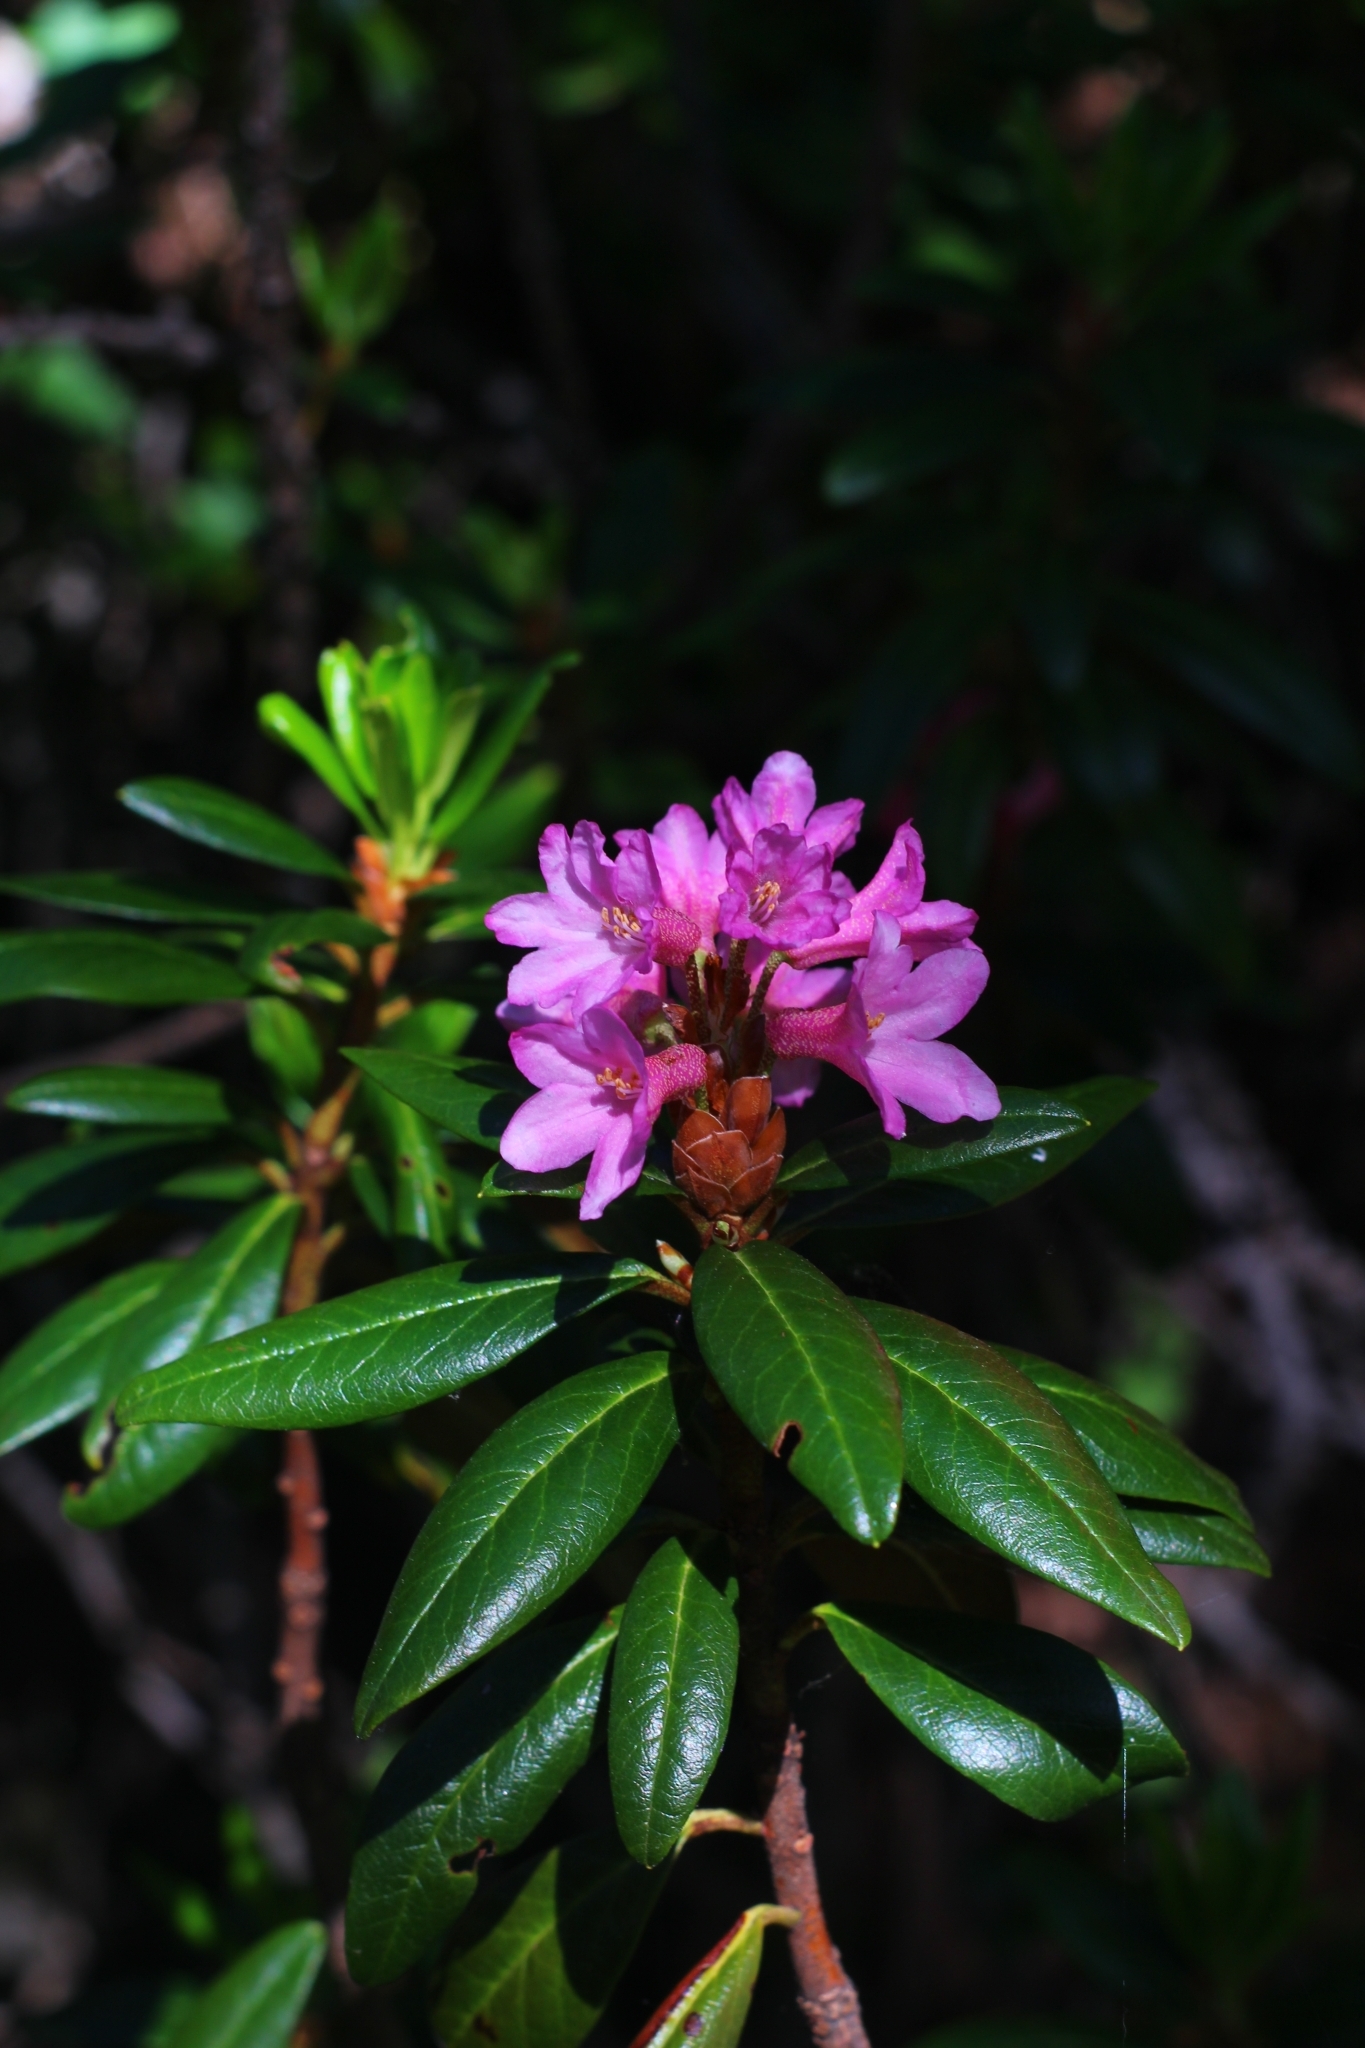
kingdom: Plantae
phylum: Tracheophyta
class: Magnoliopsida
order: Ericales
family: Ericaceae
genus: Rhododendron
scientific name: Rhododendron ferrugineum
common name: Alpenrose
